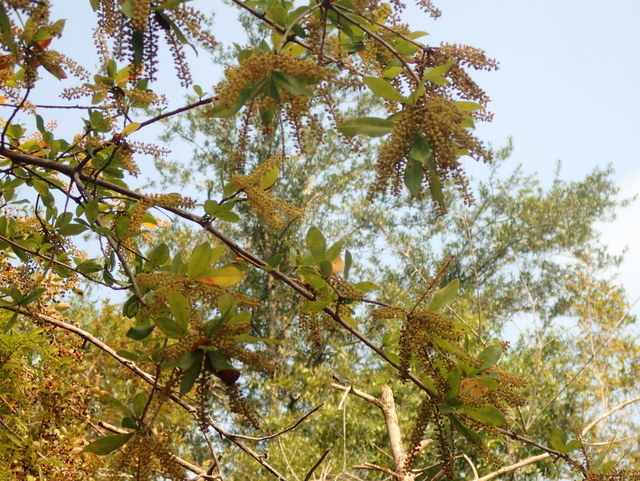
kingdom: Plantae
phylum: Tracheophyta
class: Magnoliopsida
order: Ericales
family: Cyrillaceae
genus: Cyrilla
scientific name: Cyrilla racemiflora
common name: Black titi
